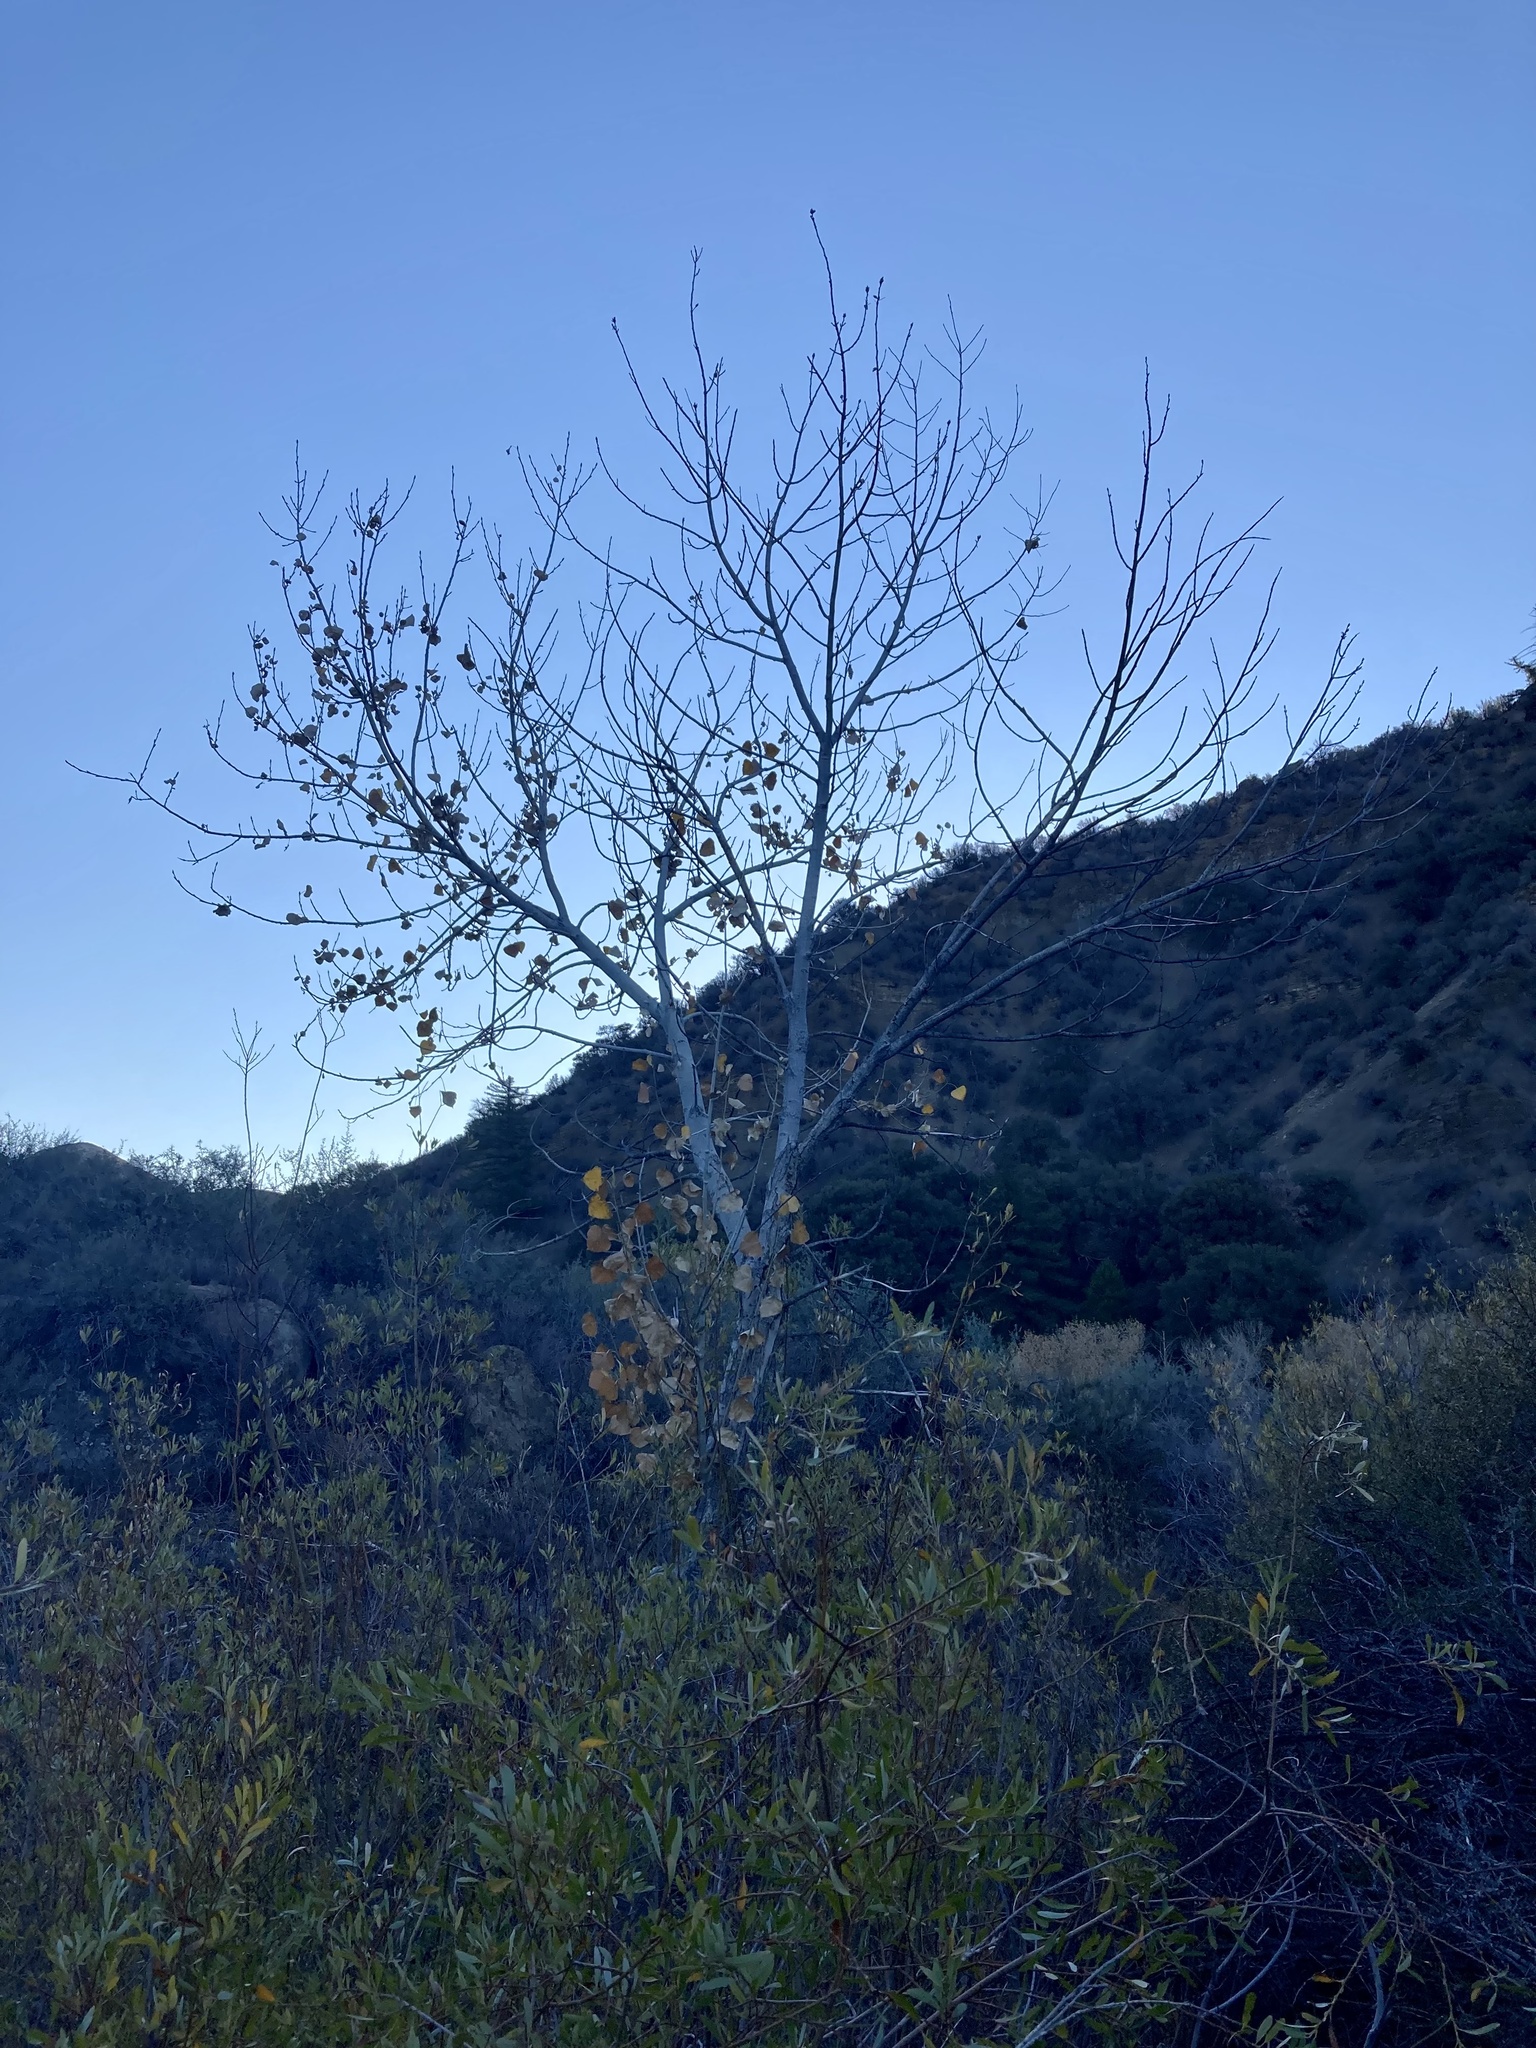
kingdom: Plantae
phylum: Tracheophyta
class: Magnoliopsida
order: Malpighiales
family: Salicaceae
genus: Populus
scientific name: Populus fremontii
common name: Fremont's cottonwood
